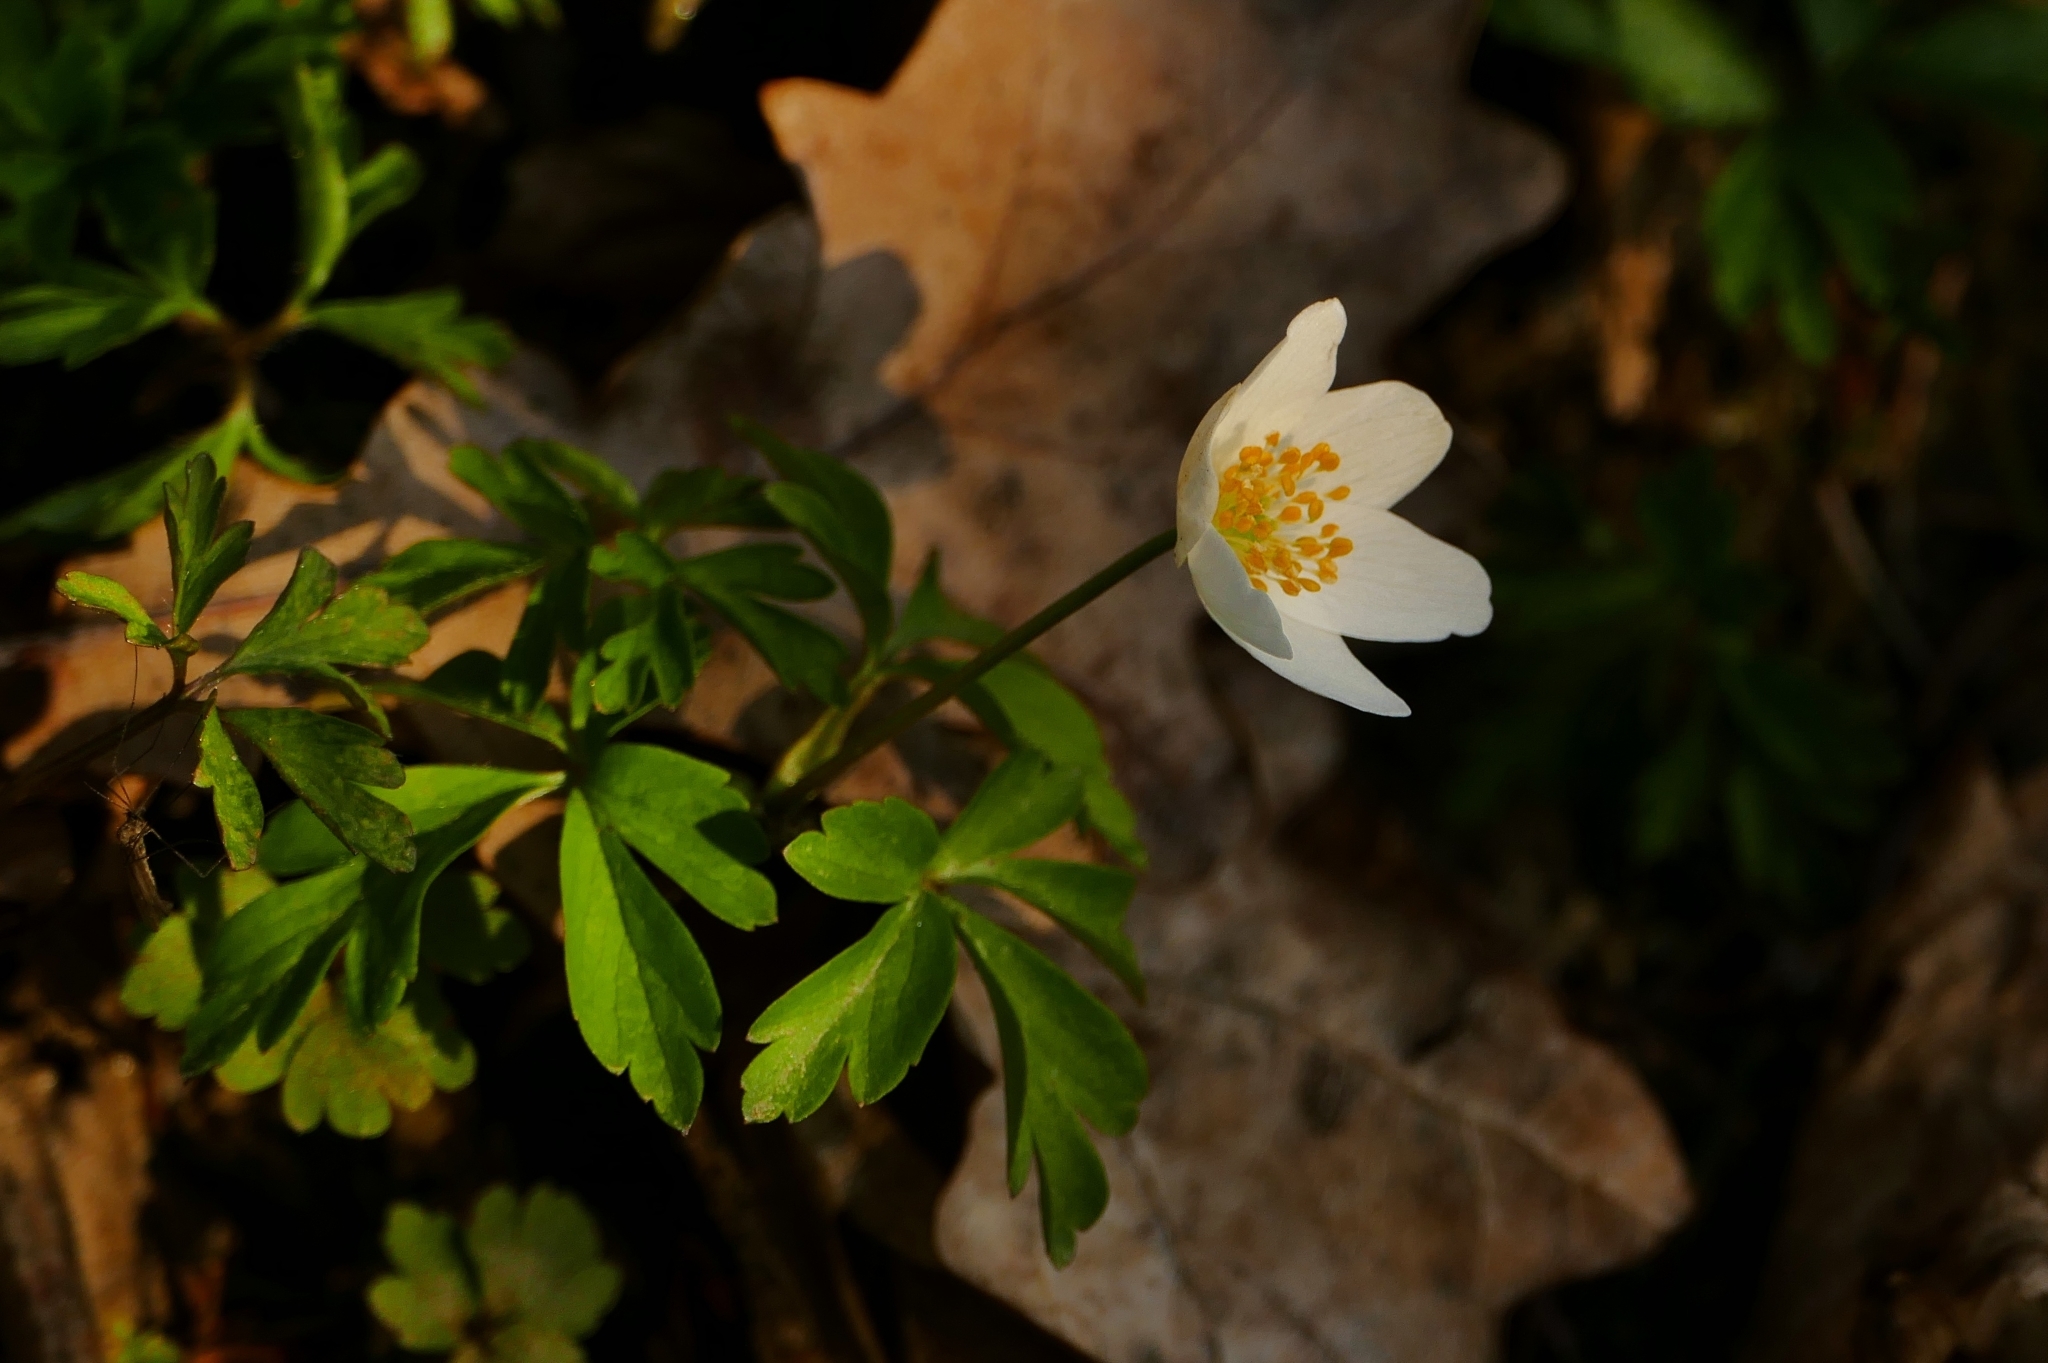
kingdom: Plantae
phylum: Tracheophyta
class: Magnoliopsida
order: Ranunculales
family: Ranunculaceae
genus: Anemone
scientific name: Anemone nemorosa
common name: Wood anemone
